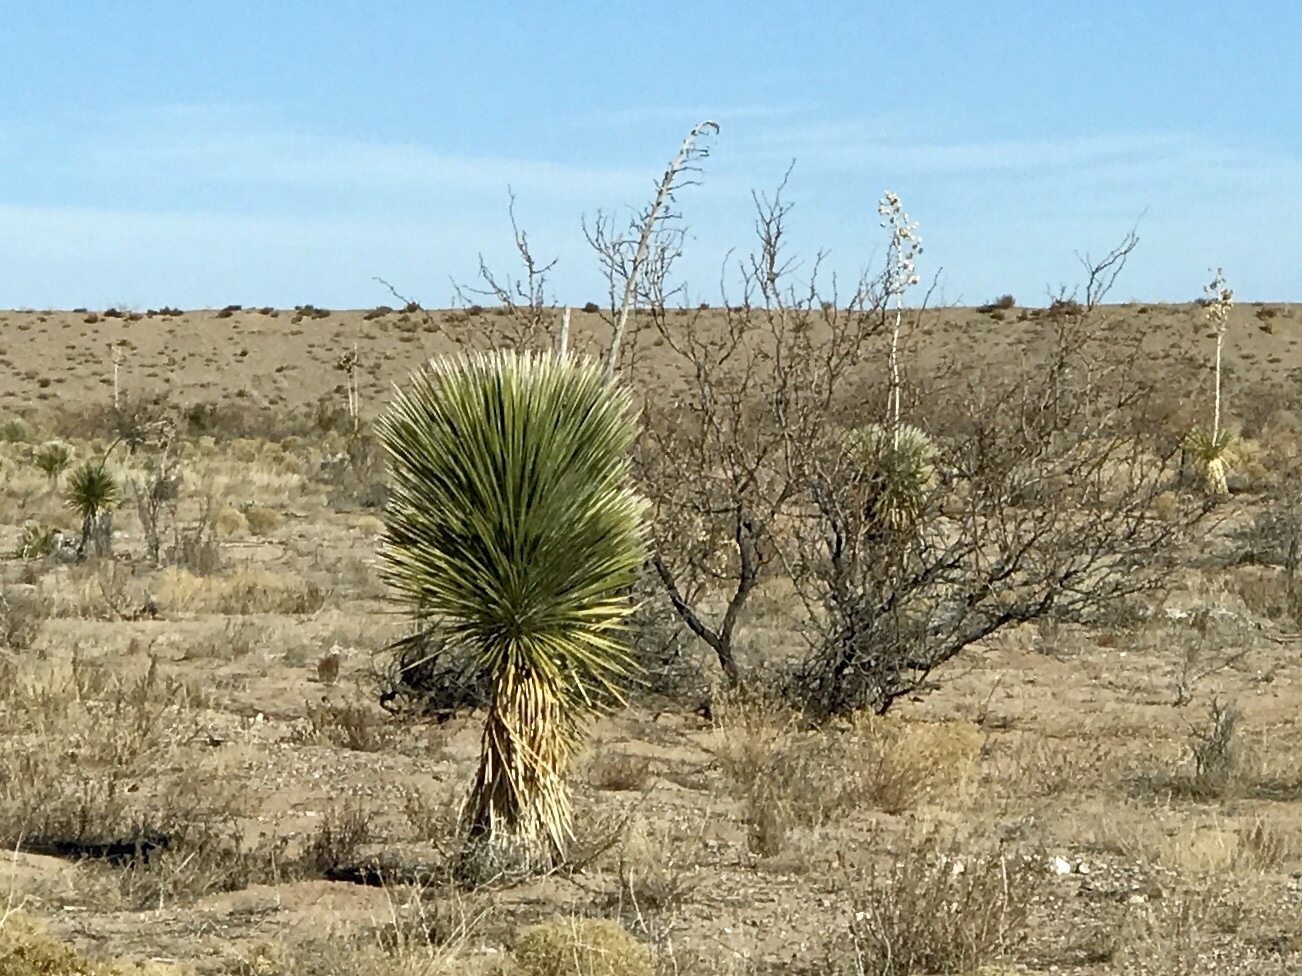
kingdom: Plantae
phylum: Tracheophyta
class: Liliopsida
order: Asparagales
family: Asparagaceae
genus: Yucca
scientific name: Yucca elata
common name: Palmella
